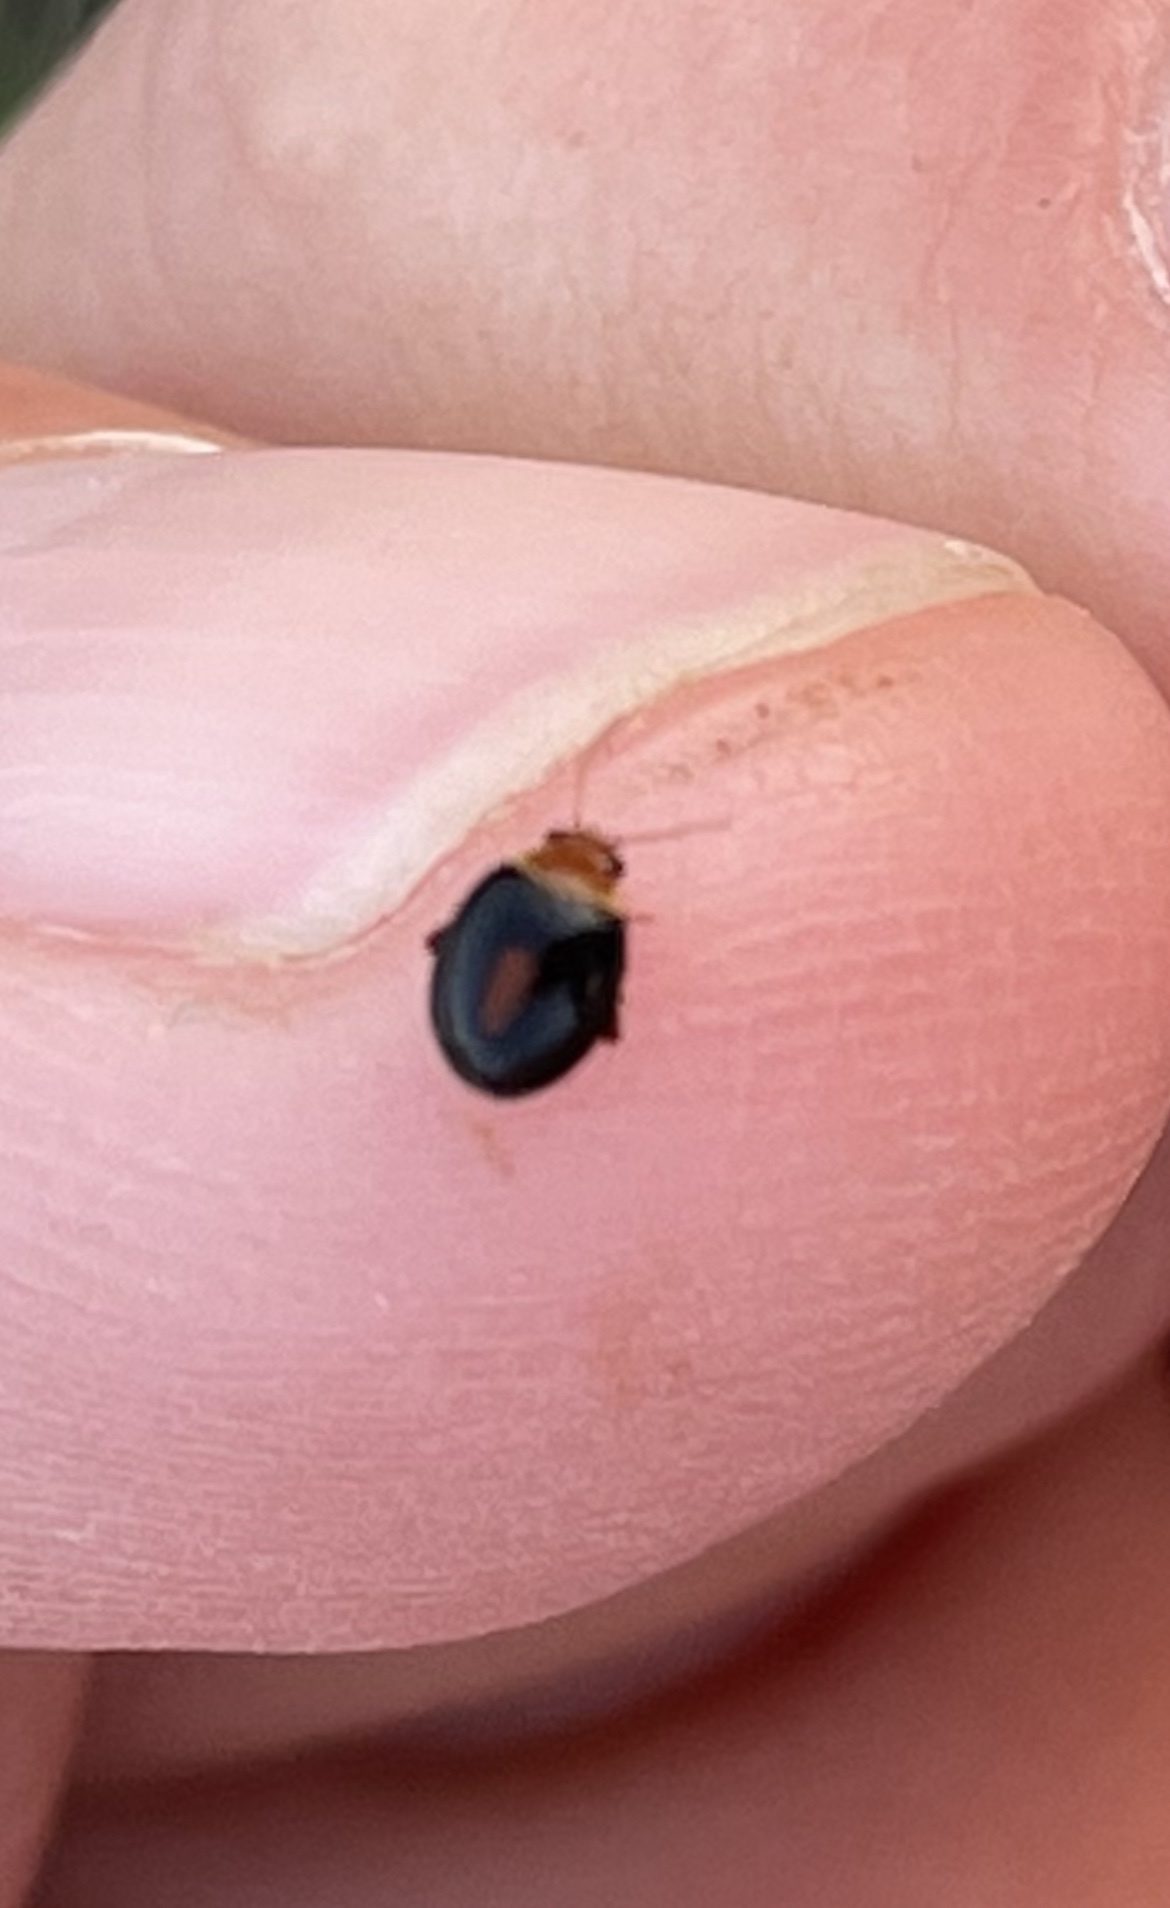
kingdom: Animalia
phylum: Arthropoda
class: Insecta
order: Coleoptera
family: Scirtidae
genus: Scirtes
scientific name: Scirtes orbiculatus
